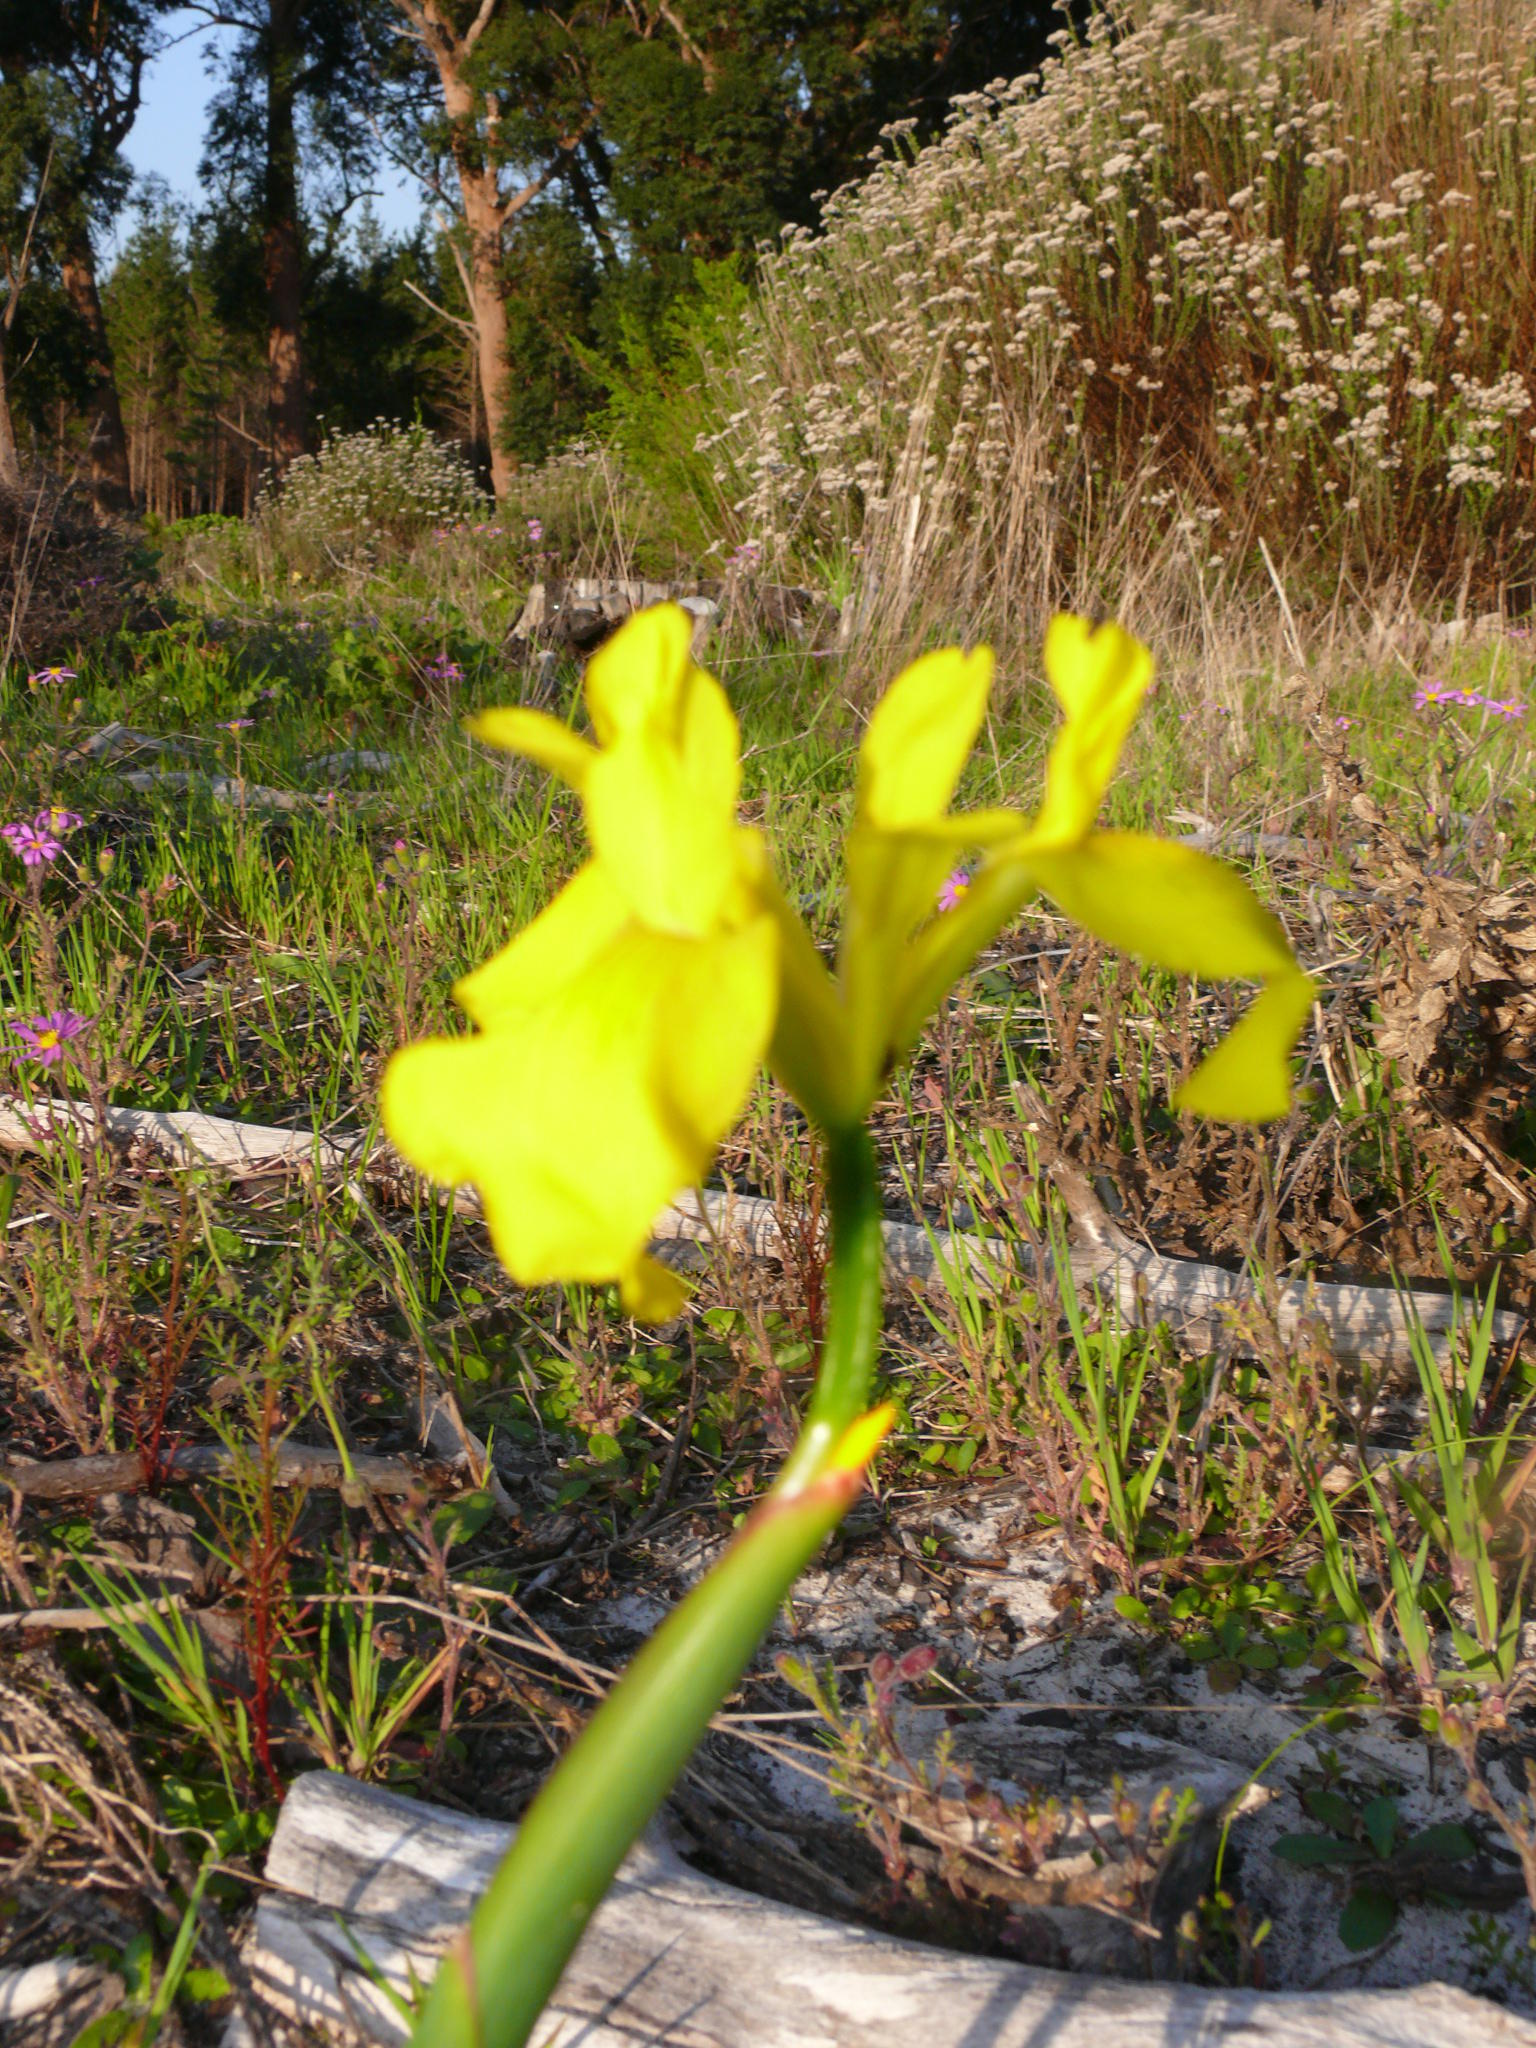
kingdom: Plantae
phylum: Tracheophyta
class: Liliopsida
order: Asparagales
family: Iridaceae
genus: Moraea
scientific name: Moraea neglecta
